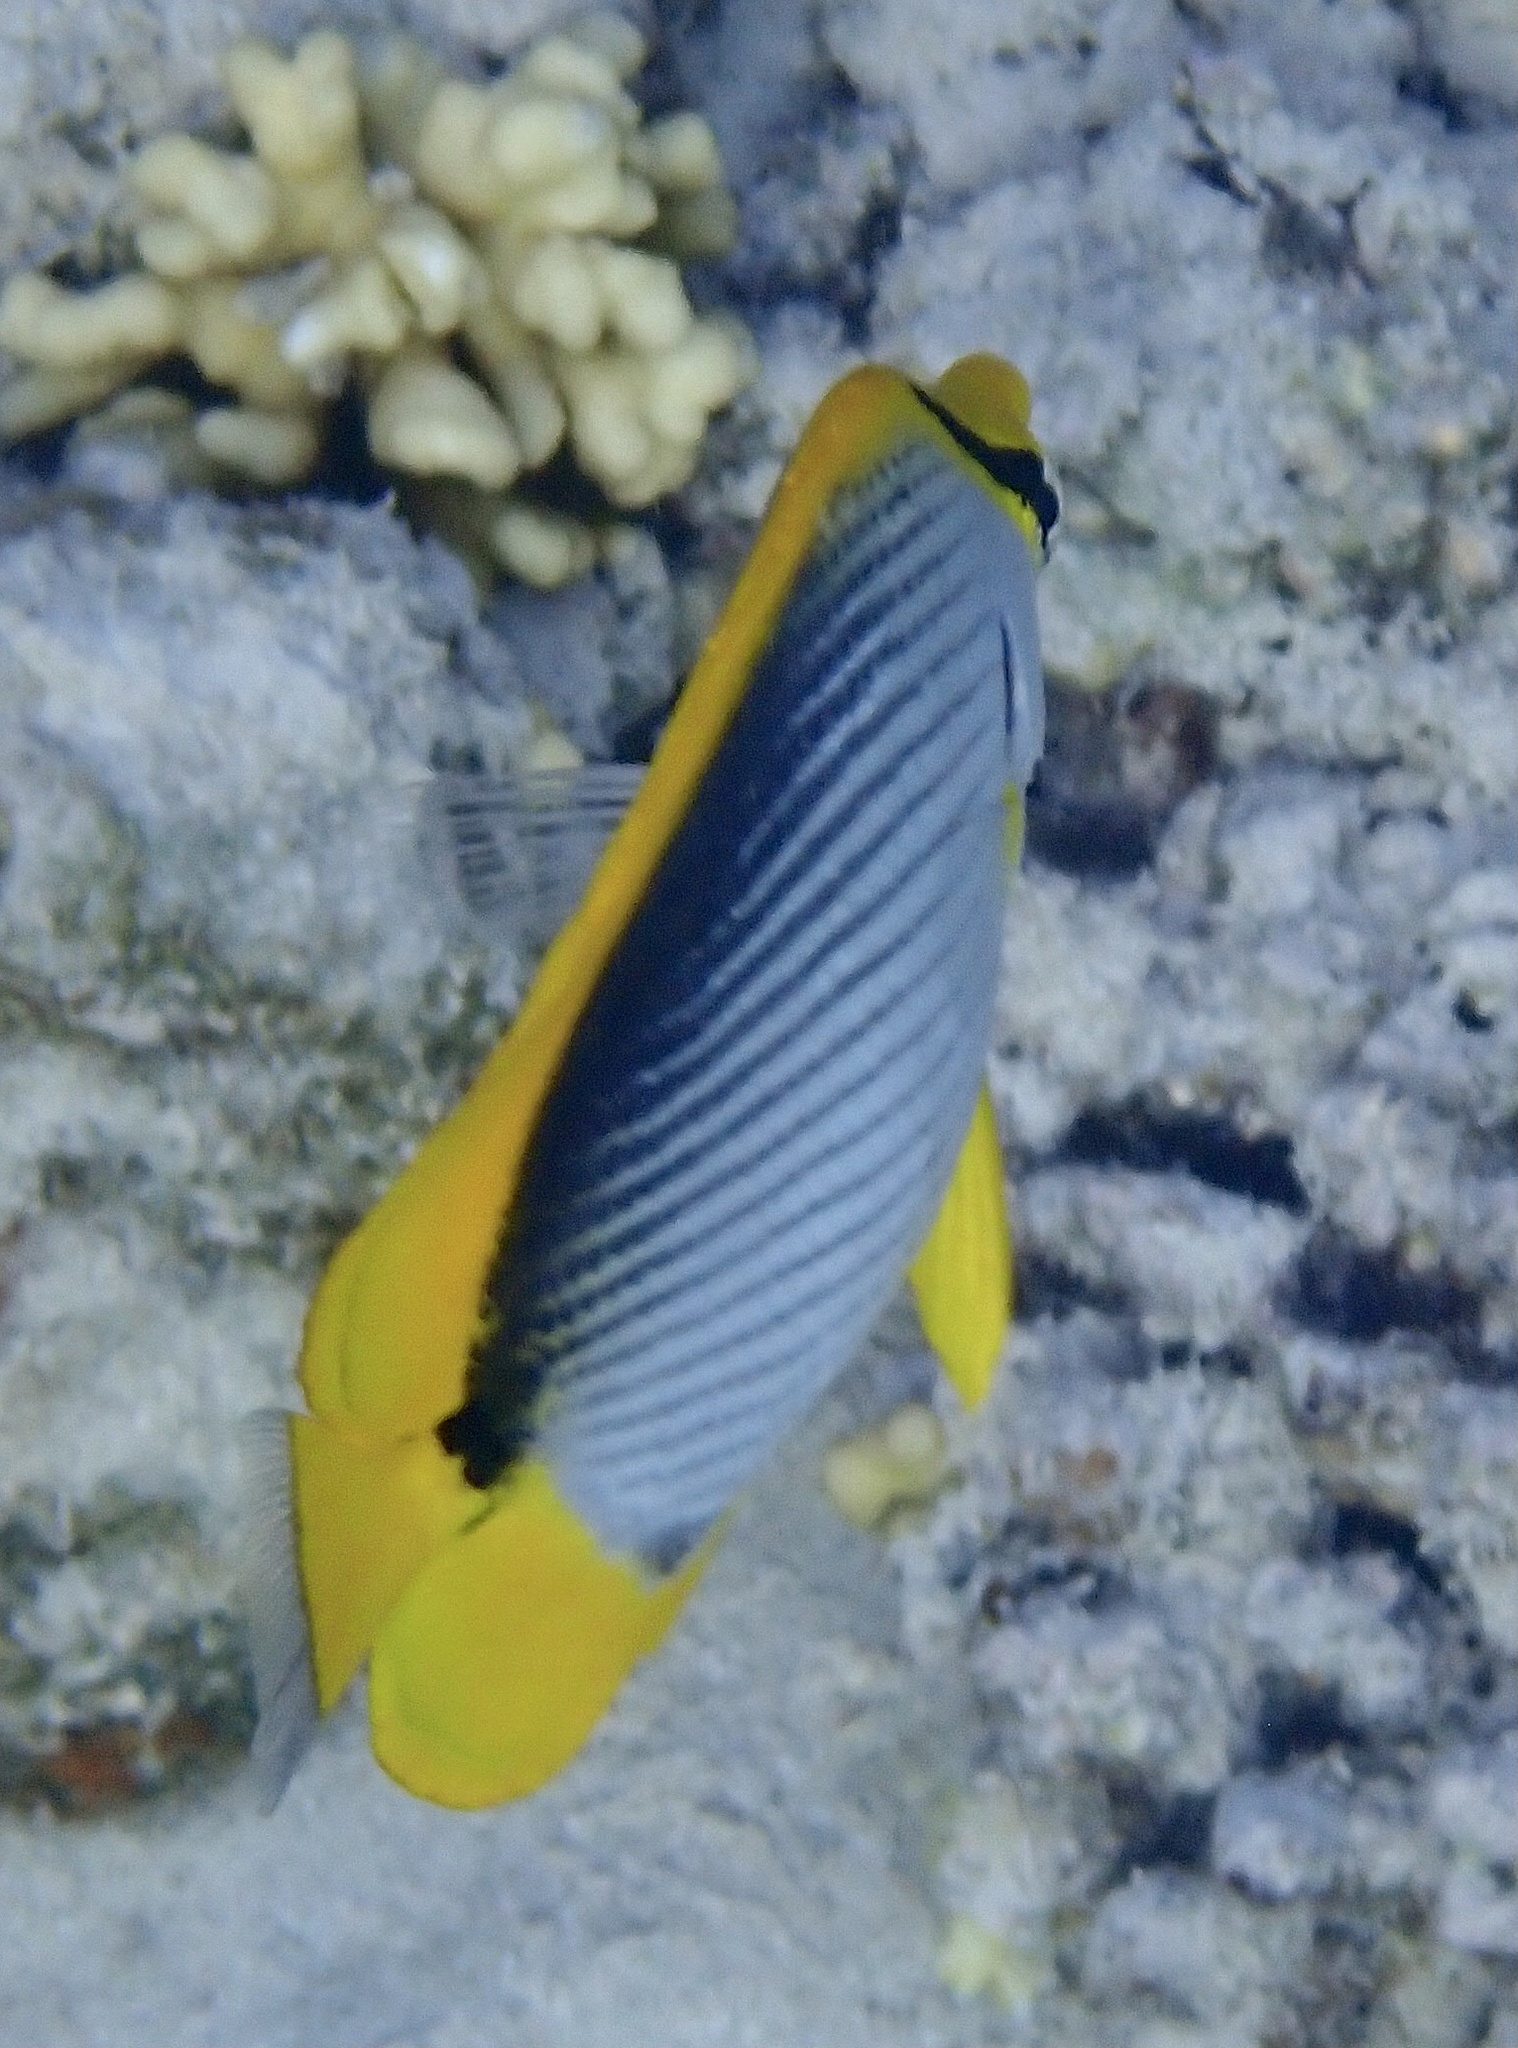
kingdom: Animalia
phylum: Chordata
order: Perciformes
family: Chaetodontidae
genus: Chaetodon
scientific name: Chaetodon melannotus
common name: Blackback butterflyfish
